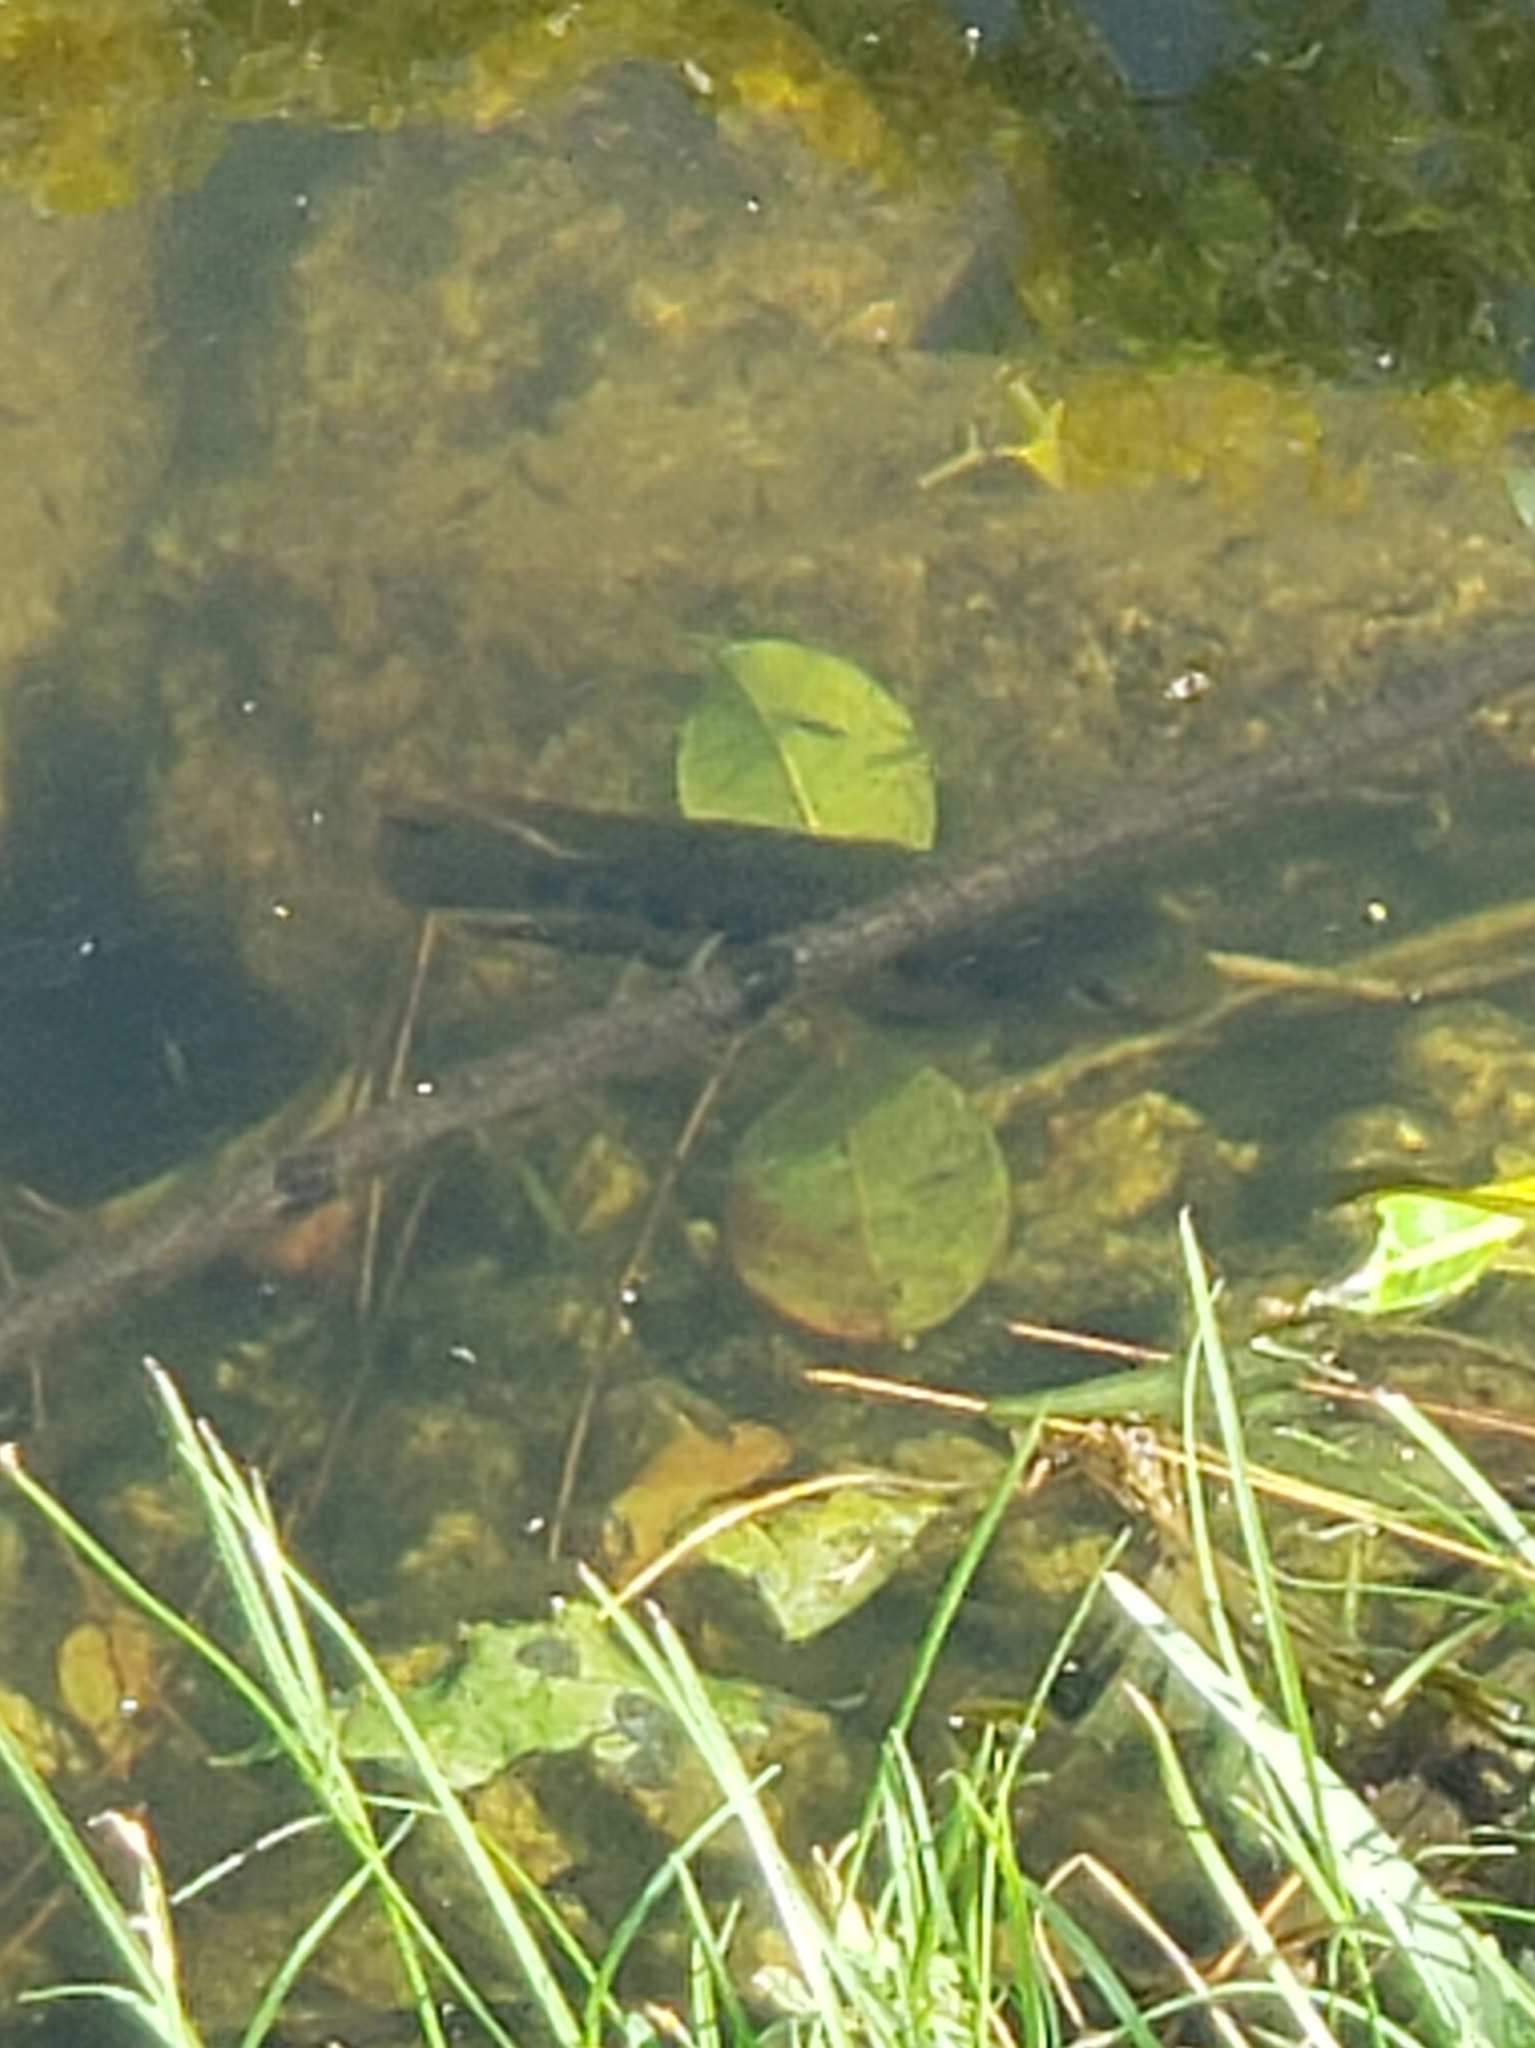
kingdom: Animalia
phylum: Chordata
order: Perciformes
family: Cichlidae
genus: Pelmatolapia
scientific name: Pelmatolapia mariae
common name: Spotted tilapia
